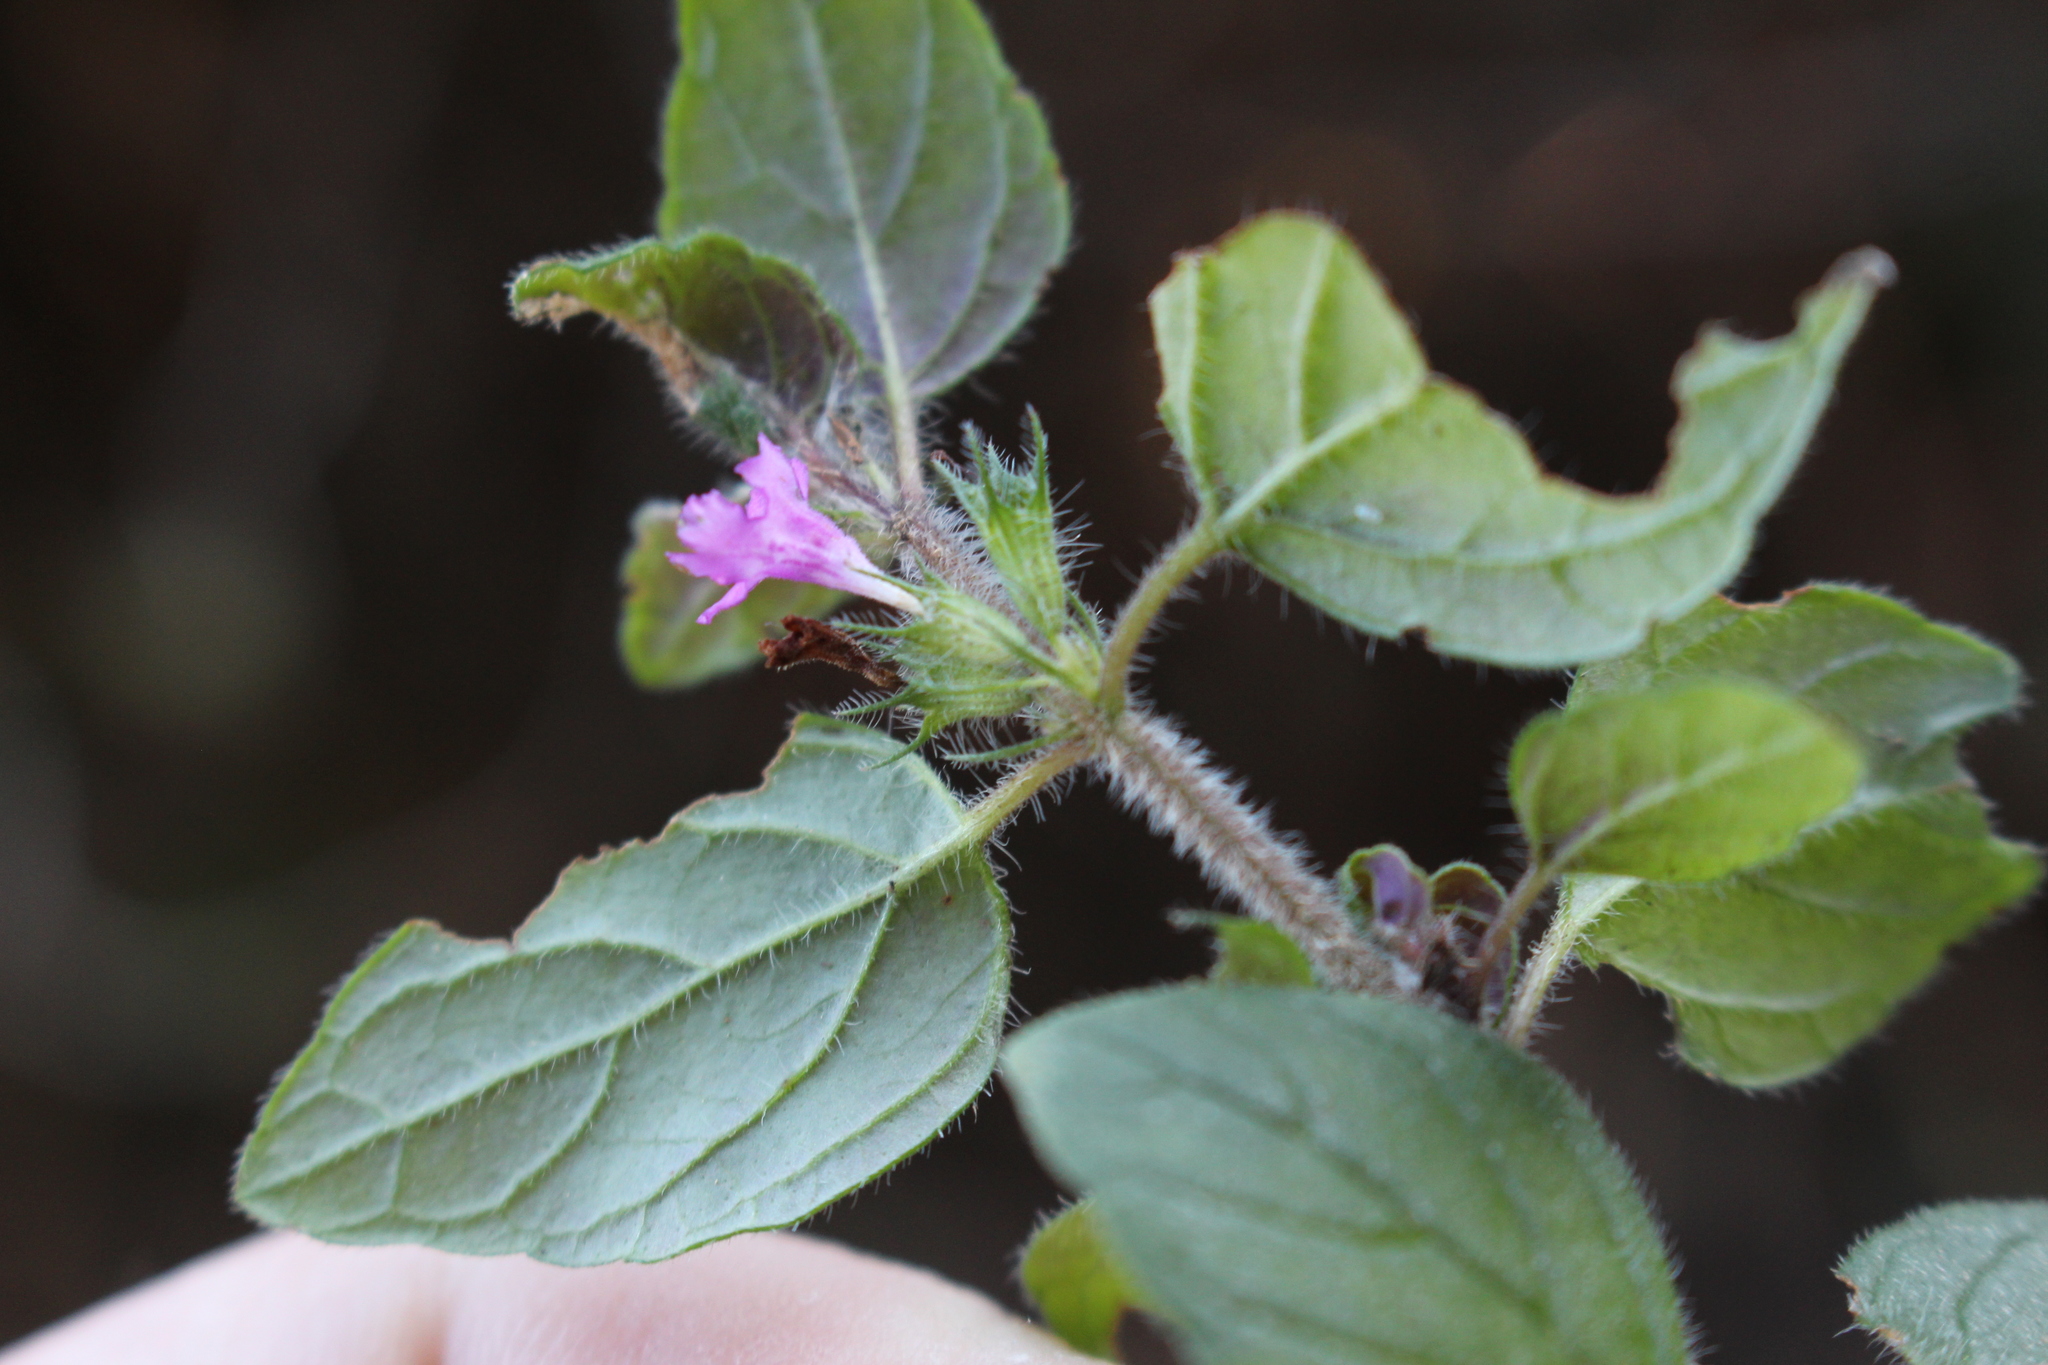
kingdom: Plantae
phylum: Tracheophyta
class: Magnoliopsida
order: Lamiales
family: Lamiaceae
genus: Clinopodium
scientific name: Clinopodium vulgare
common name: Wild basil
